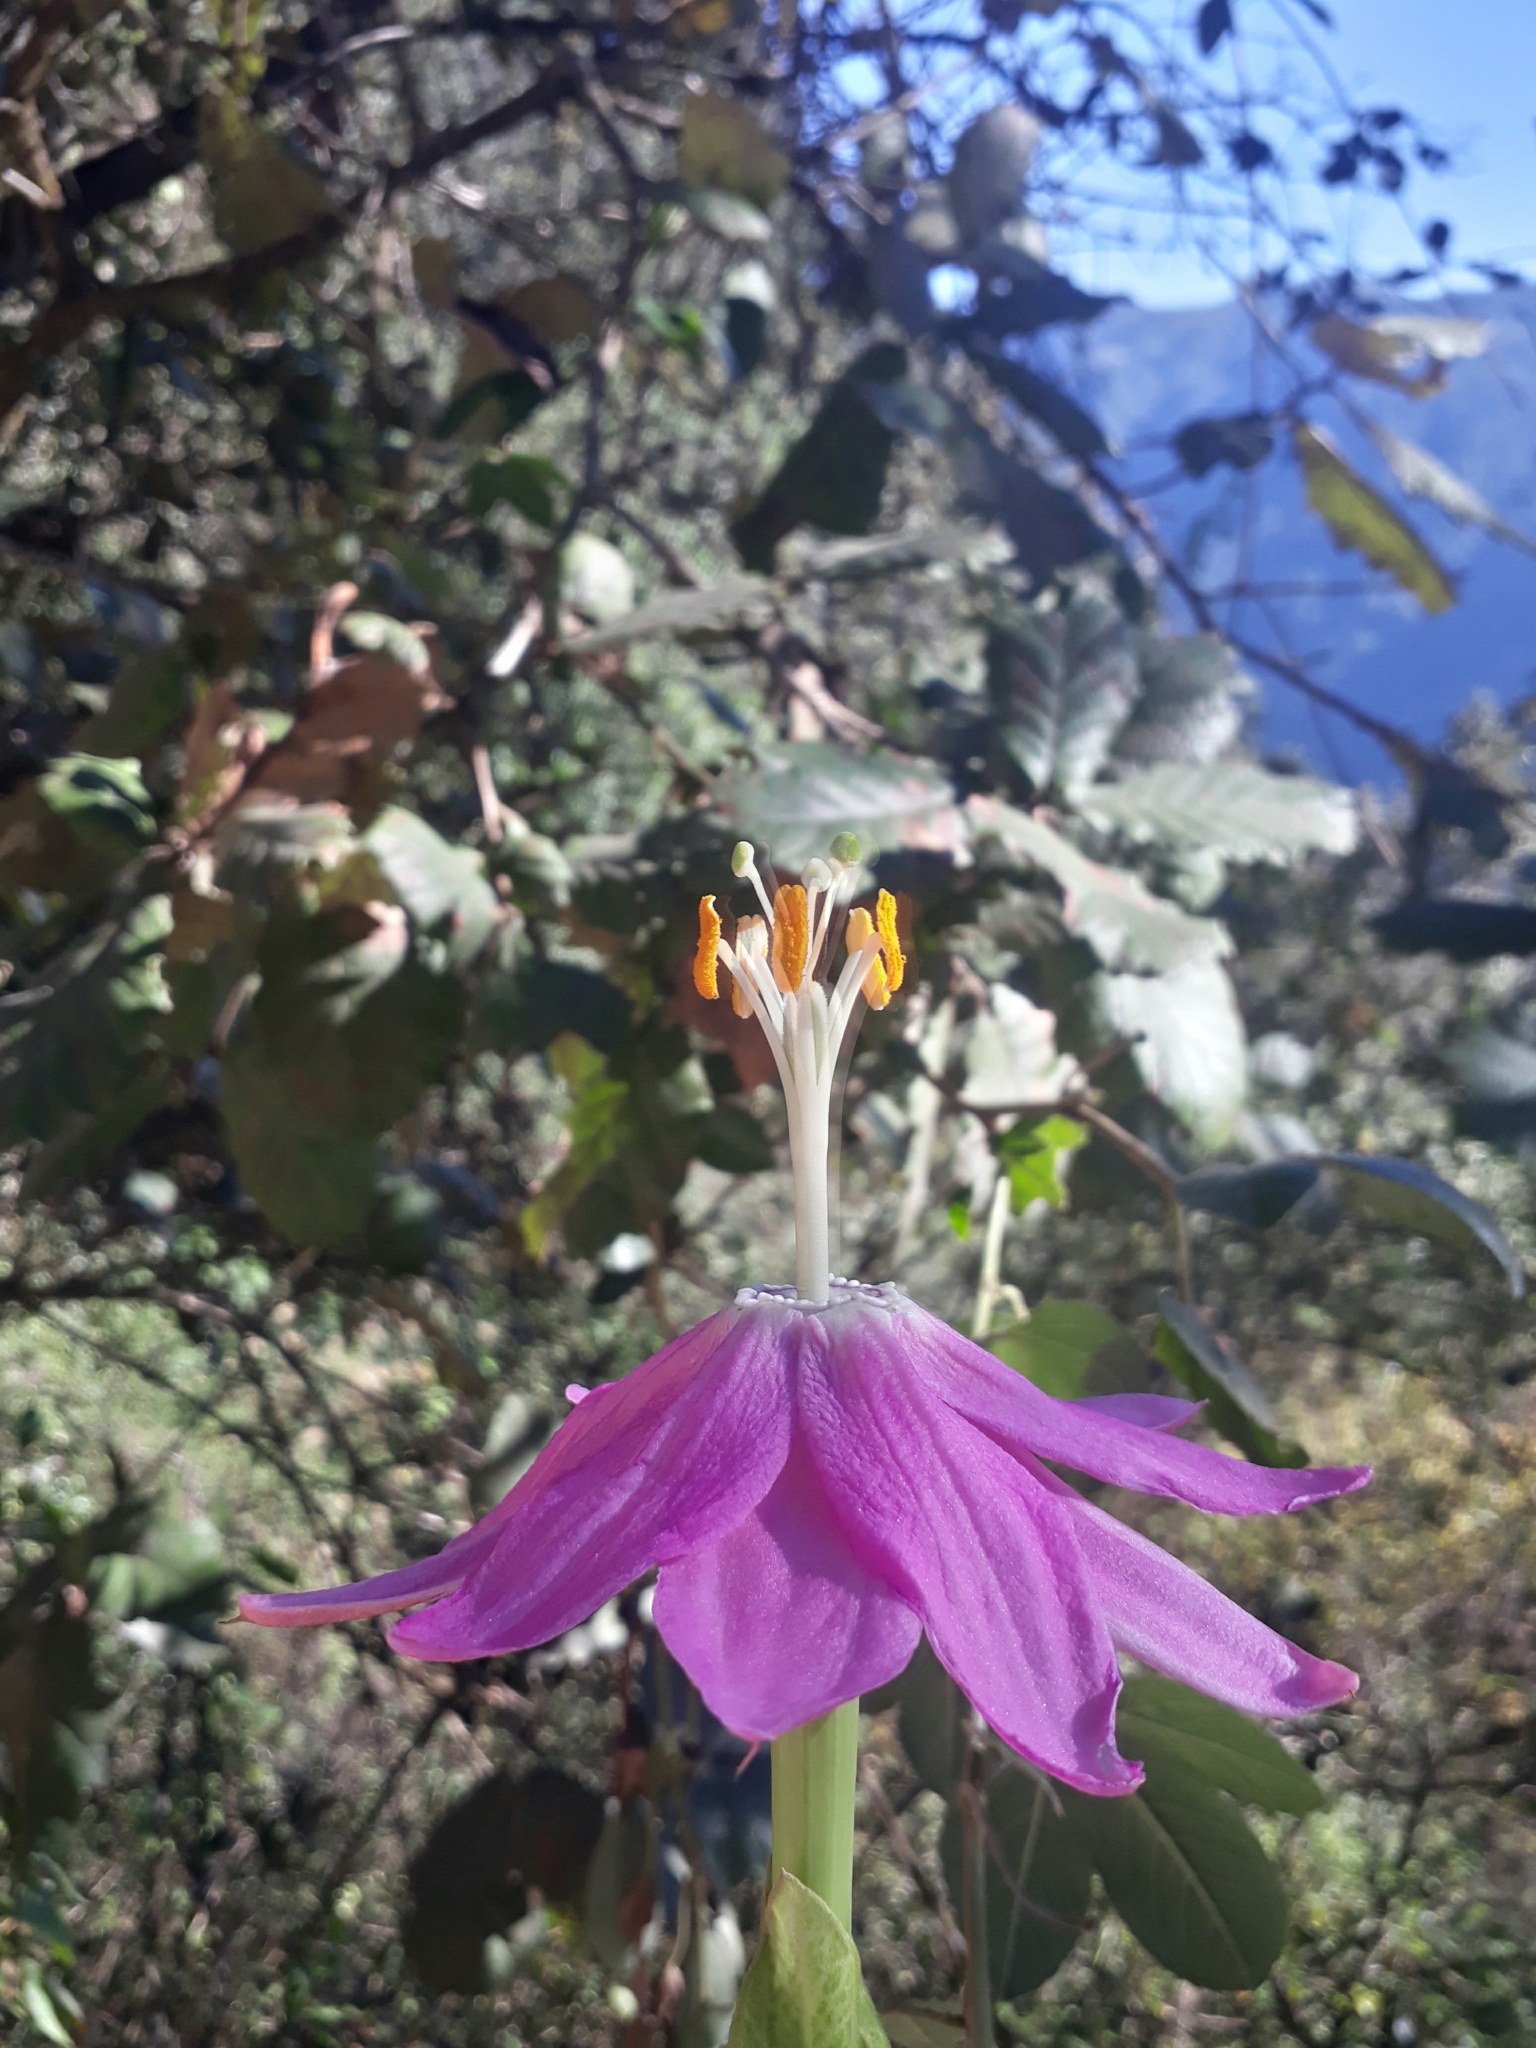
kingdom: Plantae
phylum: Tracheophyta
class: Magnoliopsida
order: Malpighiales
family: Passifloraceae
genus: Passiflora
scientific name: Passiflora tarminiana
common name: Banana poka
